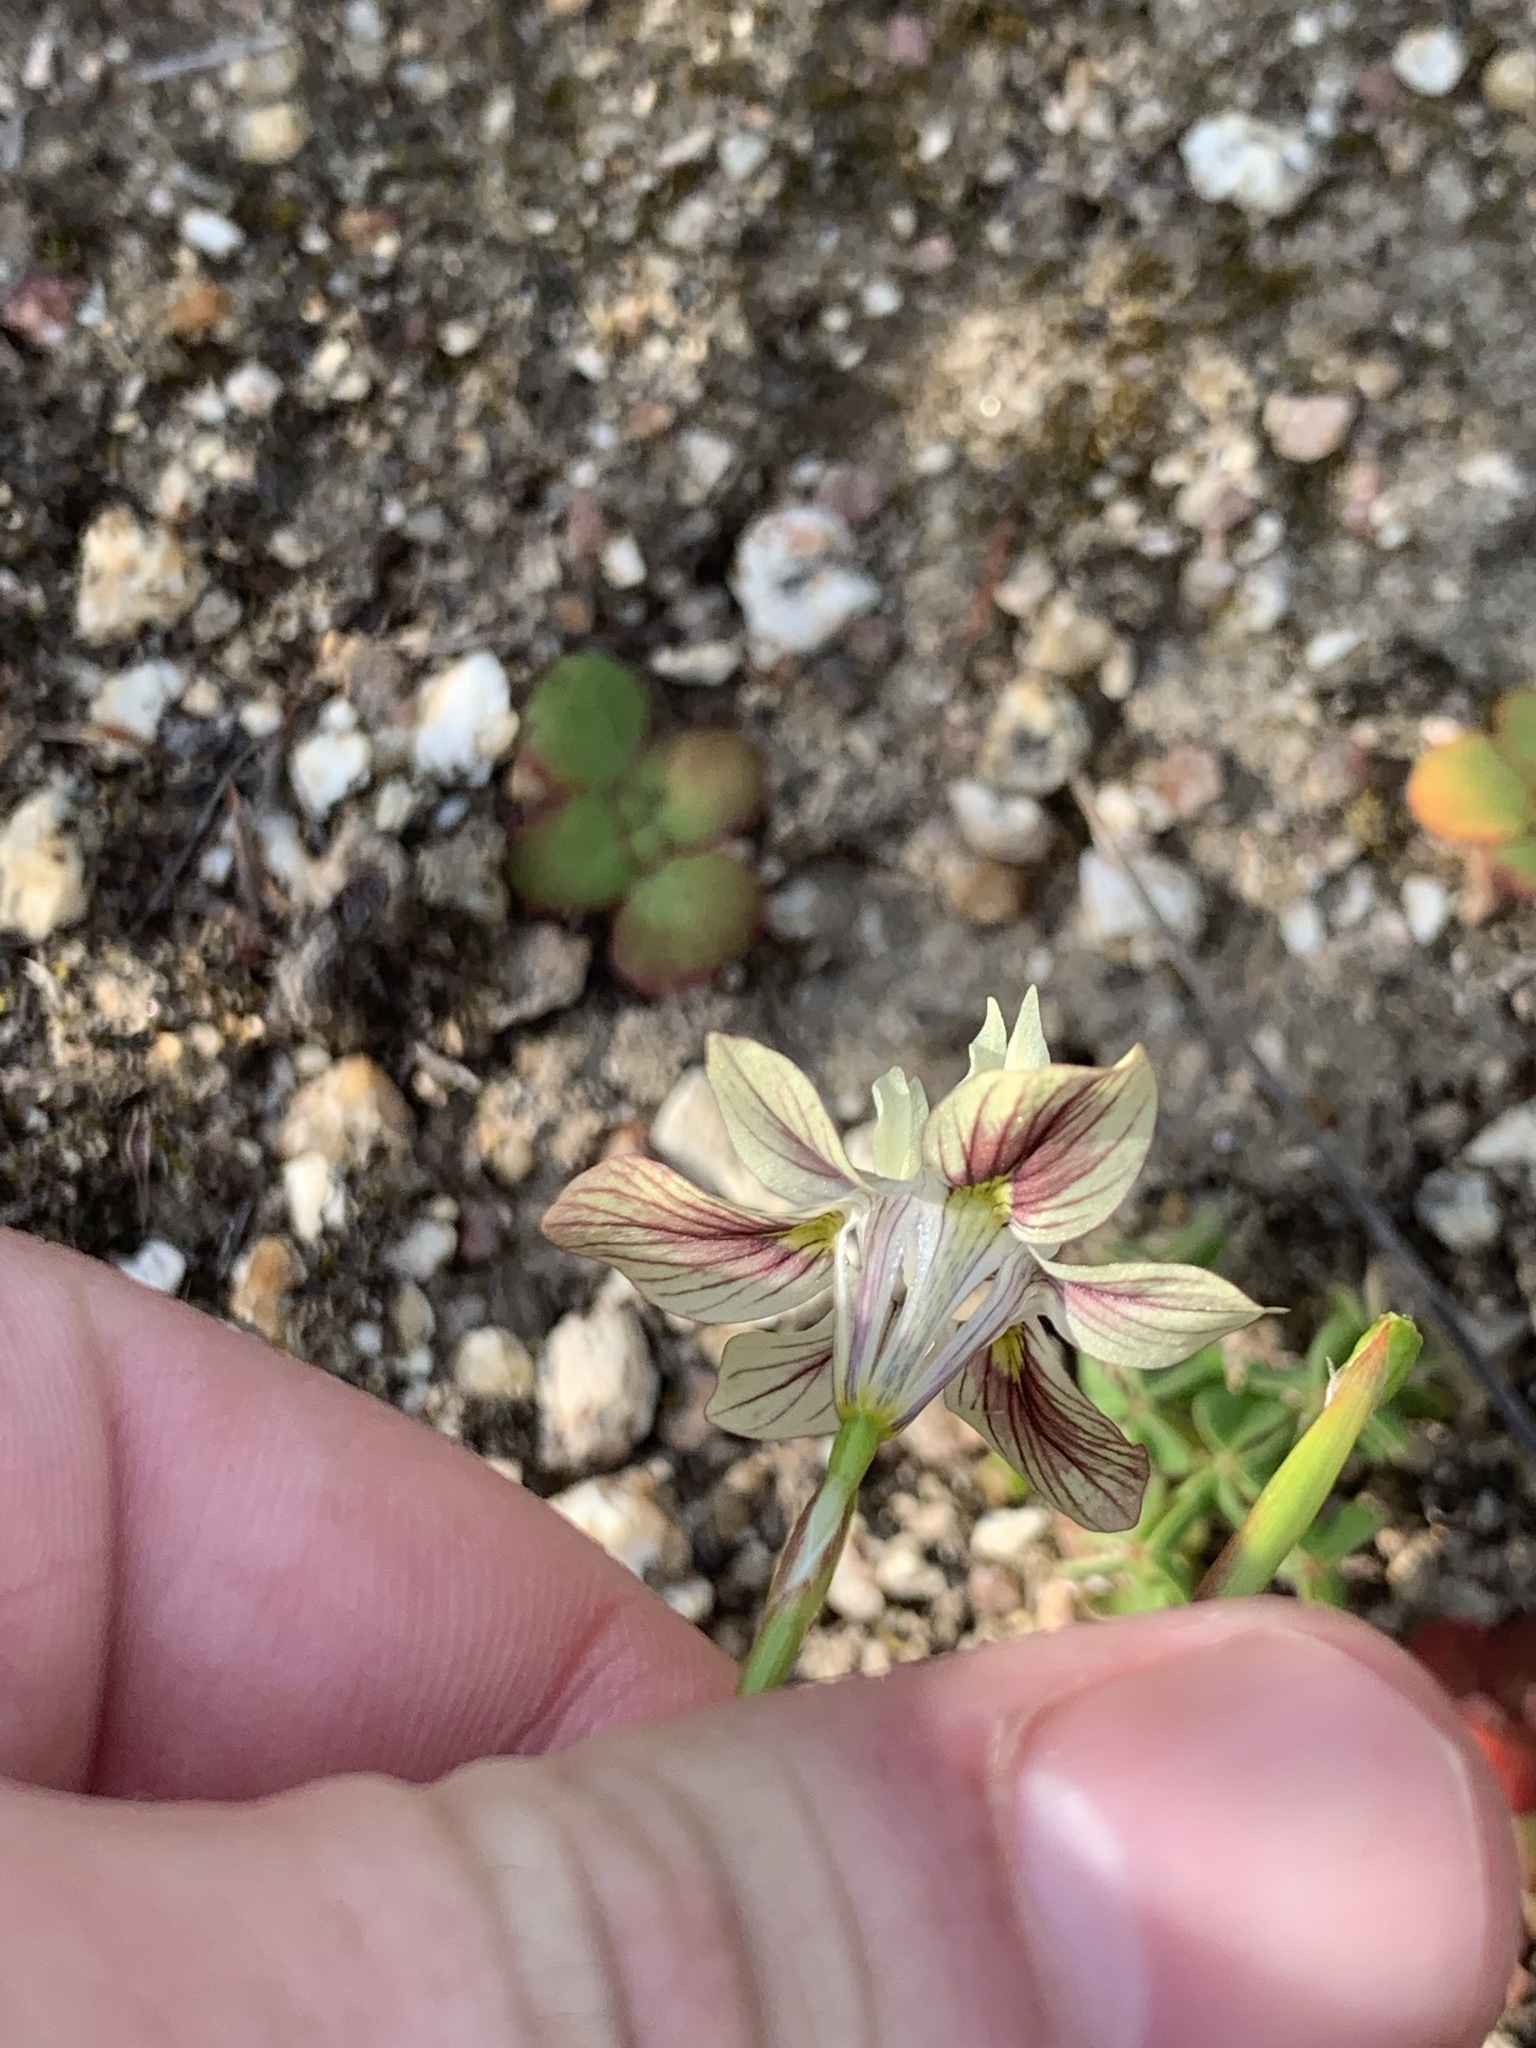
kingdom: Plantae
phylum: Tracheophyta
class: Liliopsida
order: Asparagales
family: Iridaceae
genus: Moraea
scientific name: Moraea gawleri
